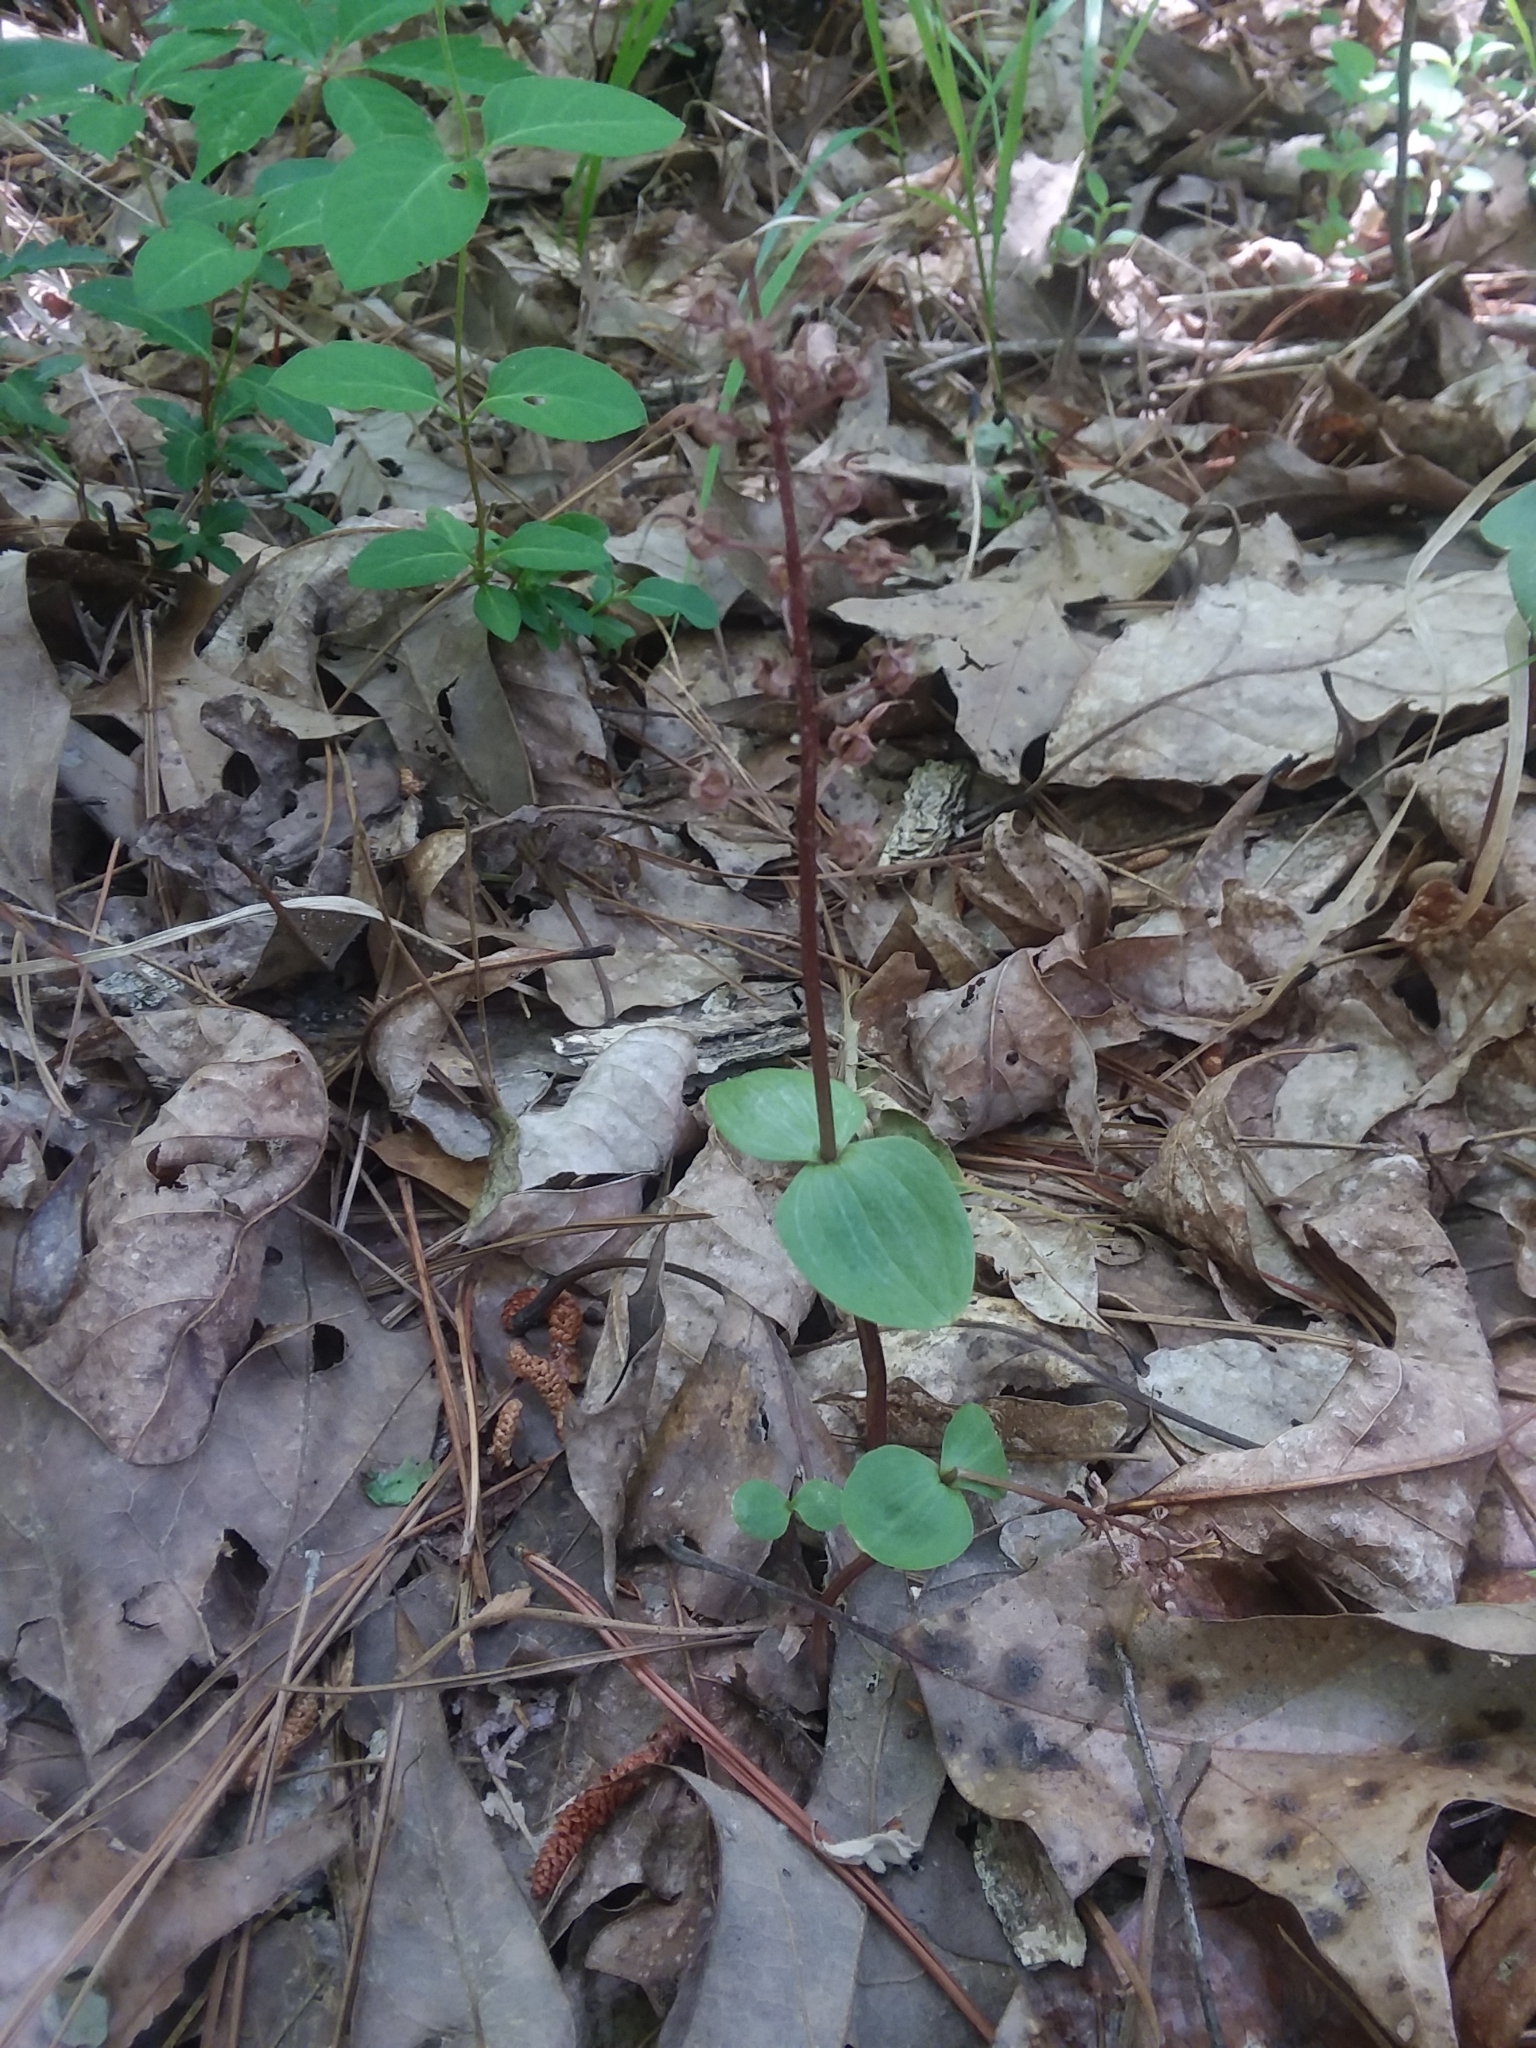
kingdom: Plantae
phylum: Tracheophyta
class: Liliopsida
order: Asparagales
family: Orchidaceae
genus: Neottia
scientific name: Neottia bifolia
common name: Southern twayblade
